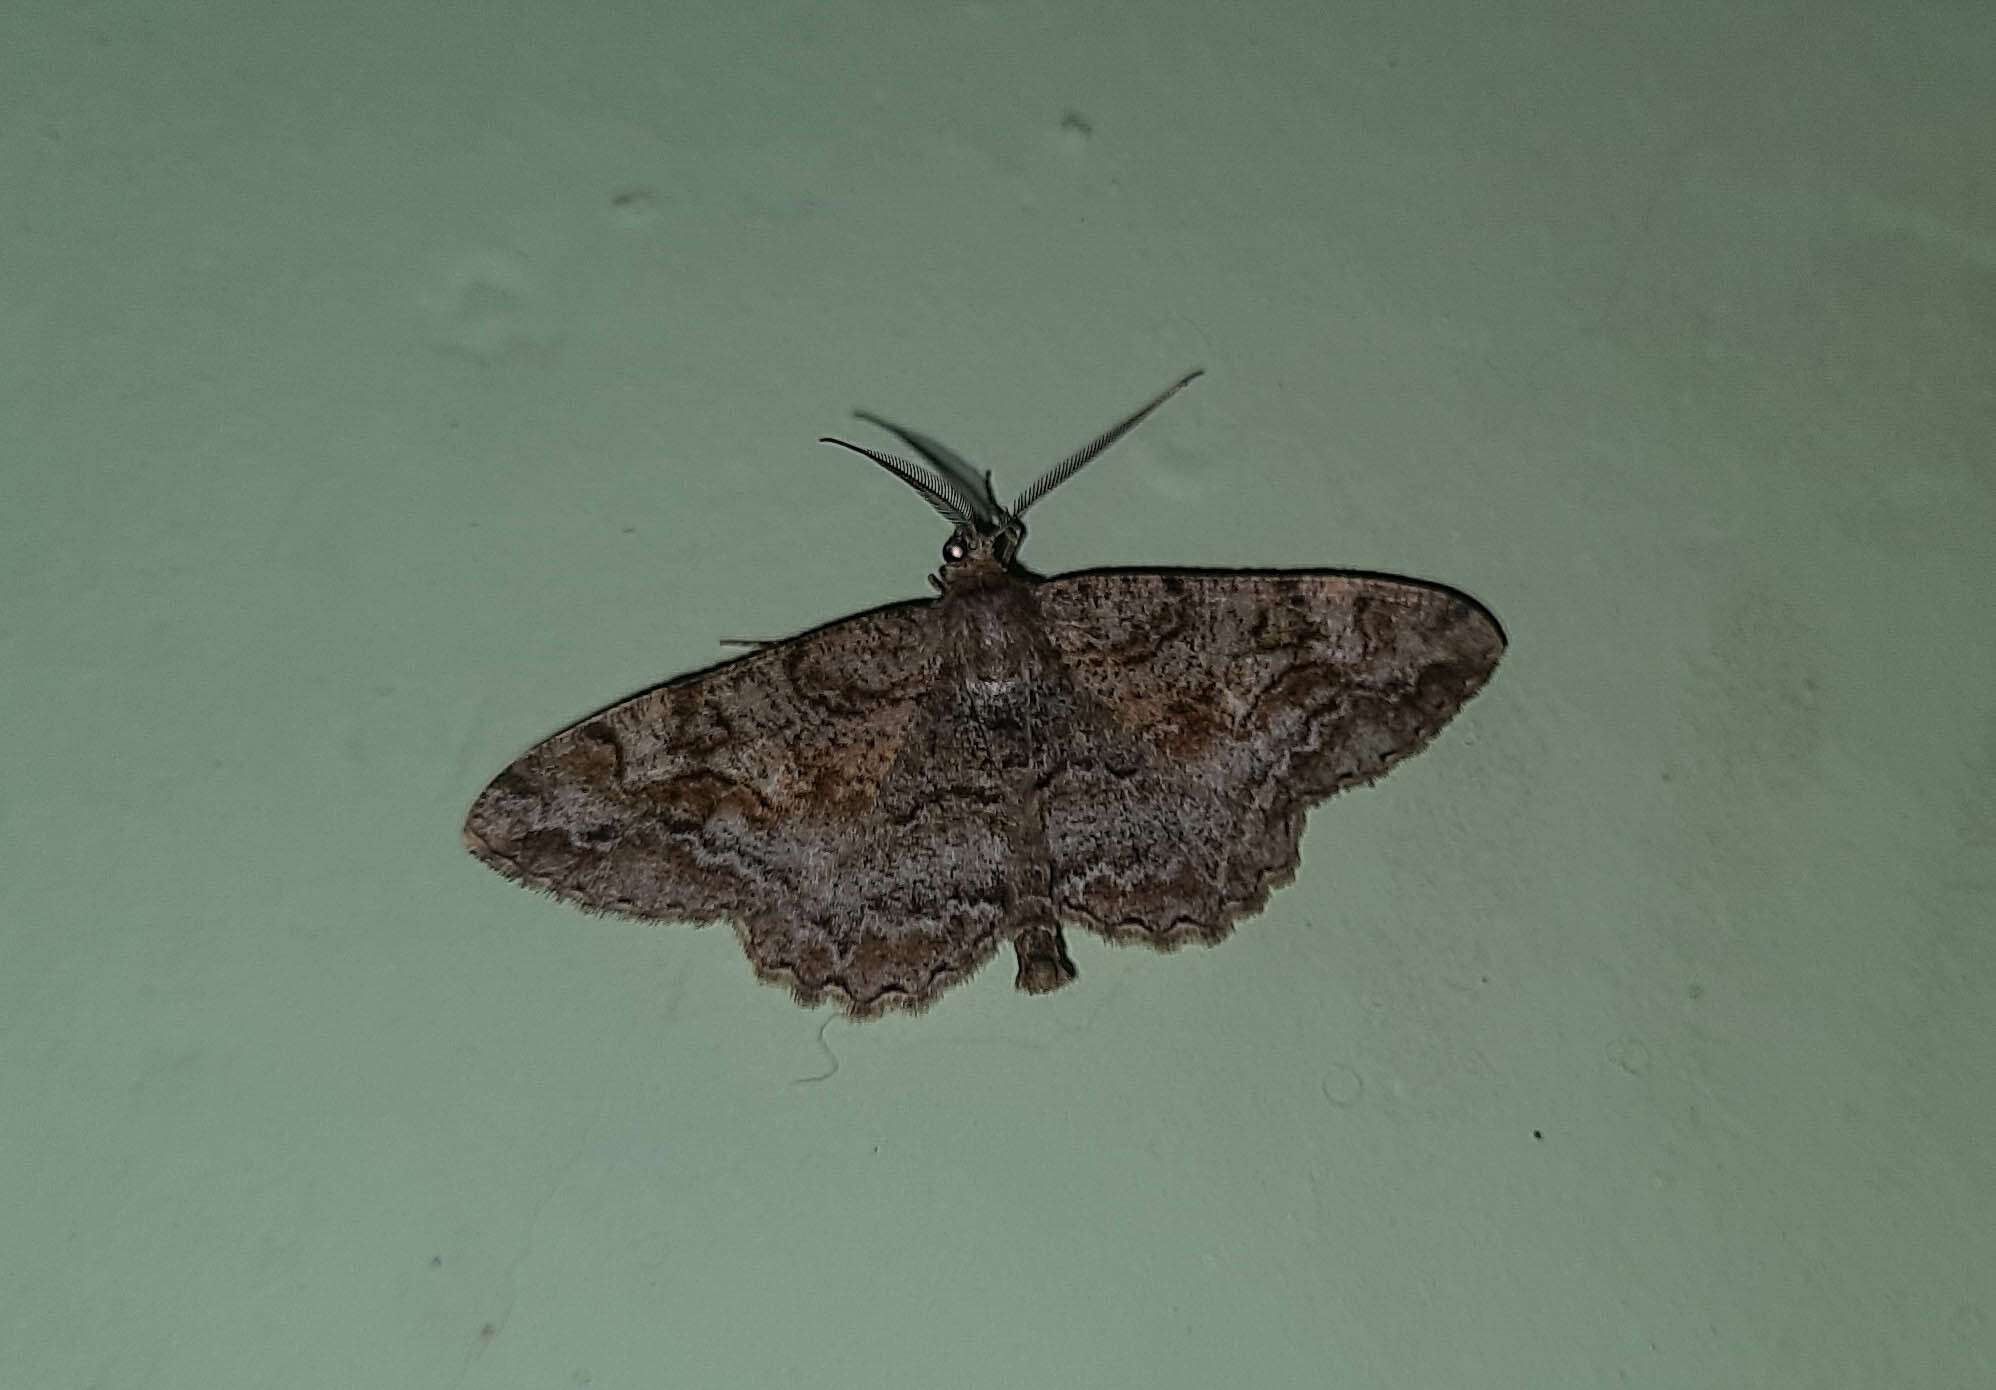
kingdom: Animalia
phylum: Arthropoda
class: Insecta
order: Lepidoptera
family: Geometridae
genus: Alcis
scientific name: Alcis repandata
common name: Mottled beauty
